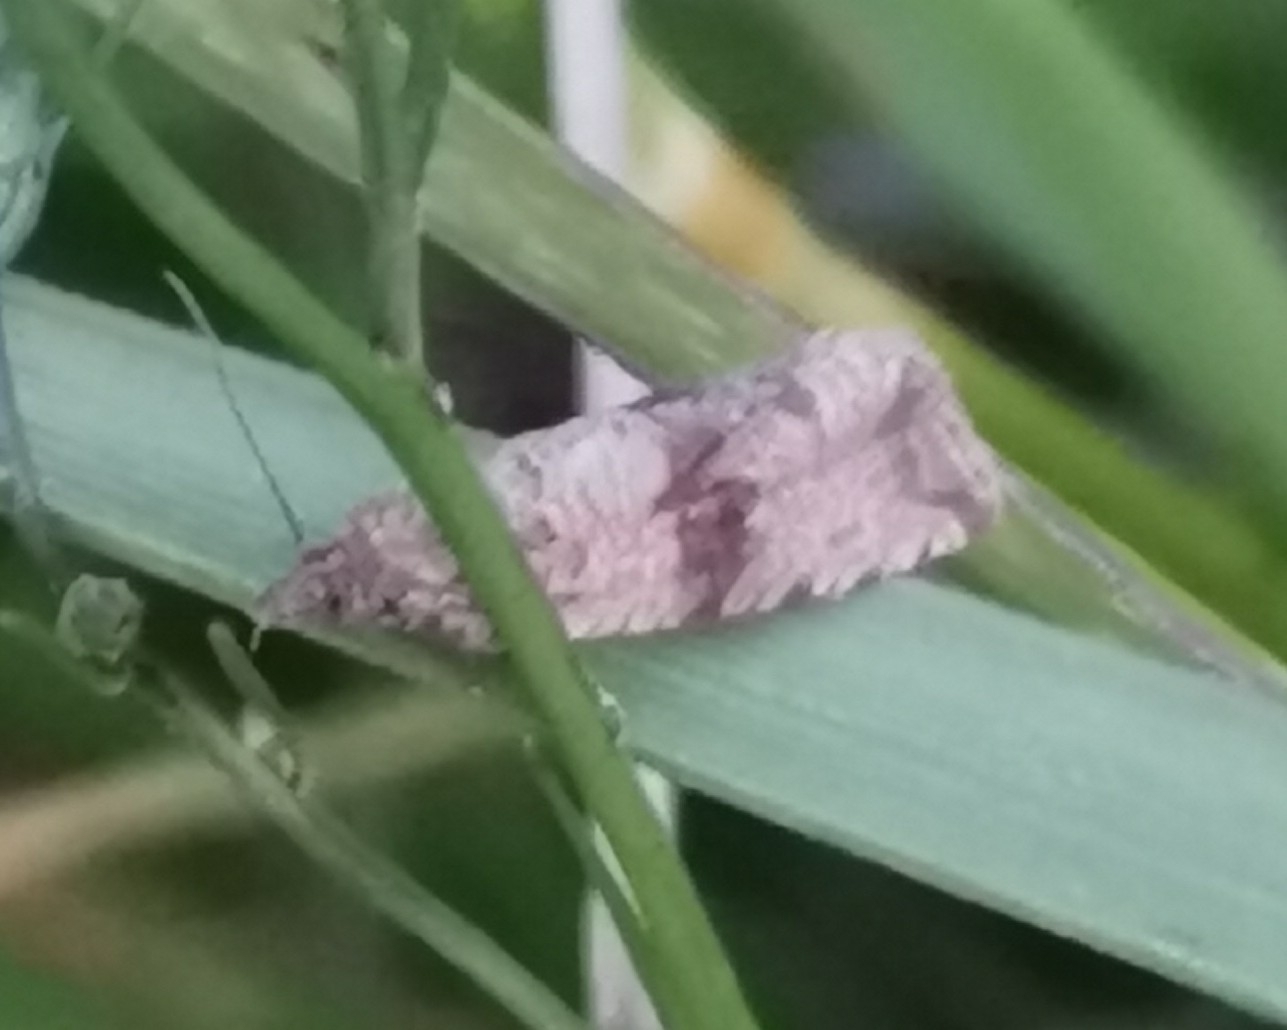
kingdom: Animalia
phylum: Arthropoda
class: Insecta
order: Lepidoptera
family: Tortricidae
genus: Celypha
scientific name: Celypha striana
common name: Barred marble
